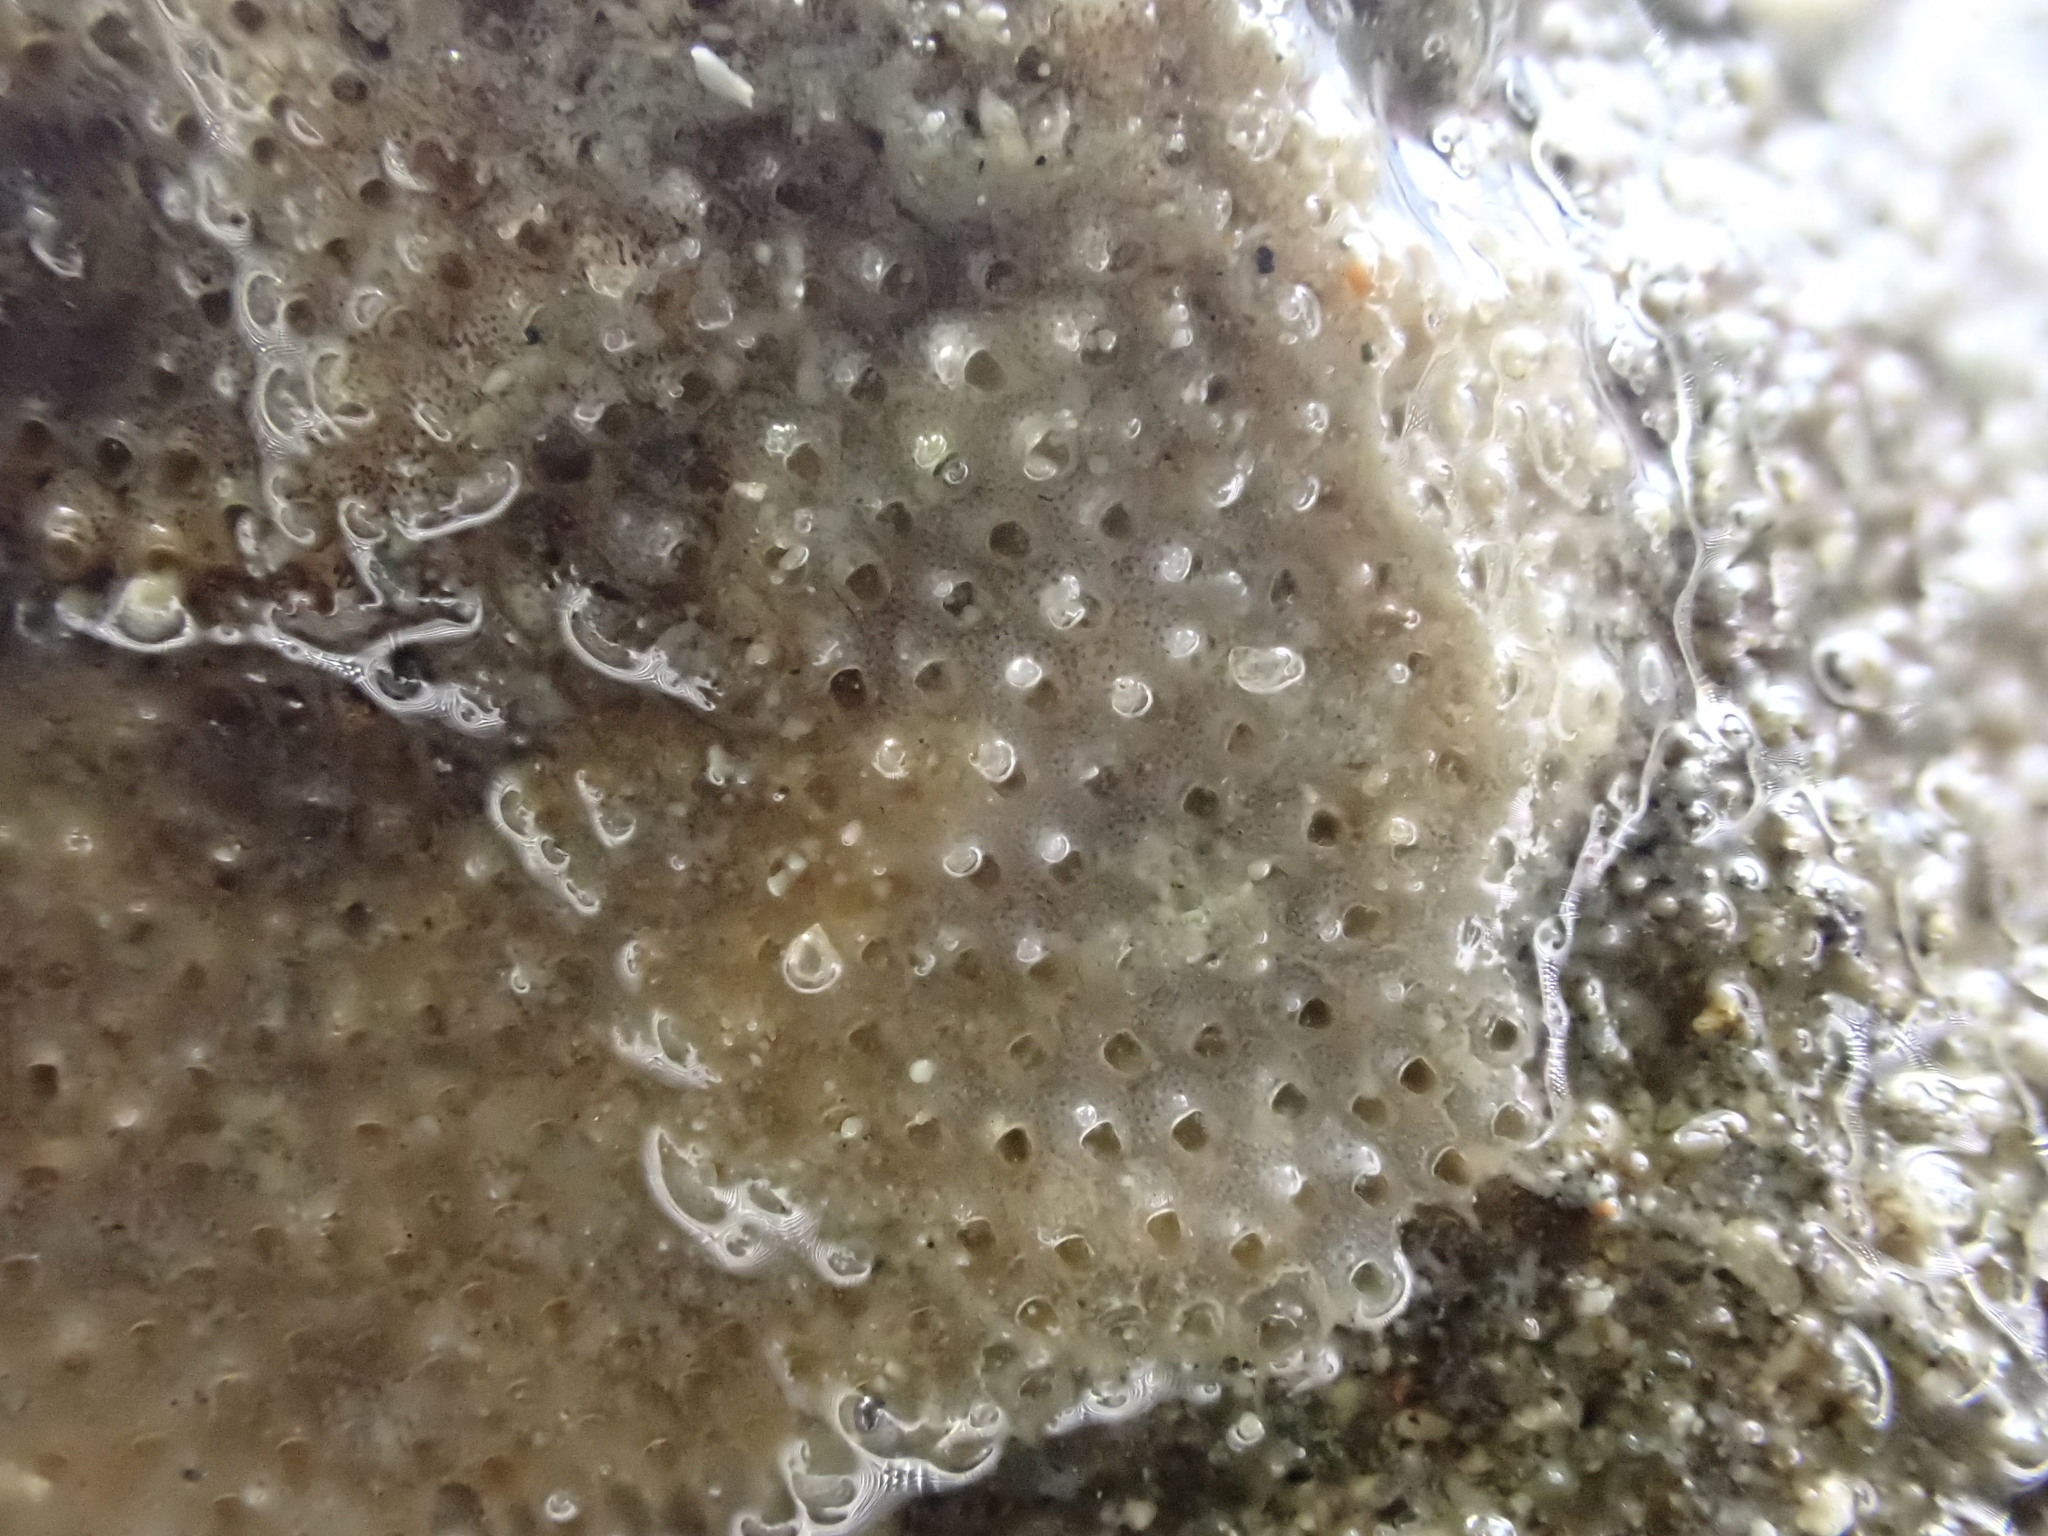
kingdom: Animalia
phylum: Bryozoa
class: Gymnolaemata
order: Cheilostomatida
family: Cryptosulidae
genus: Cryptosula
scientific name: Cryptosula pallasiana
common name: Red crust
